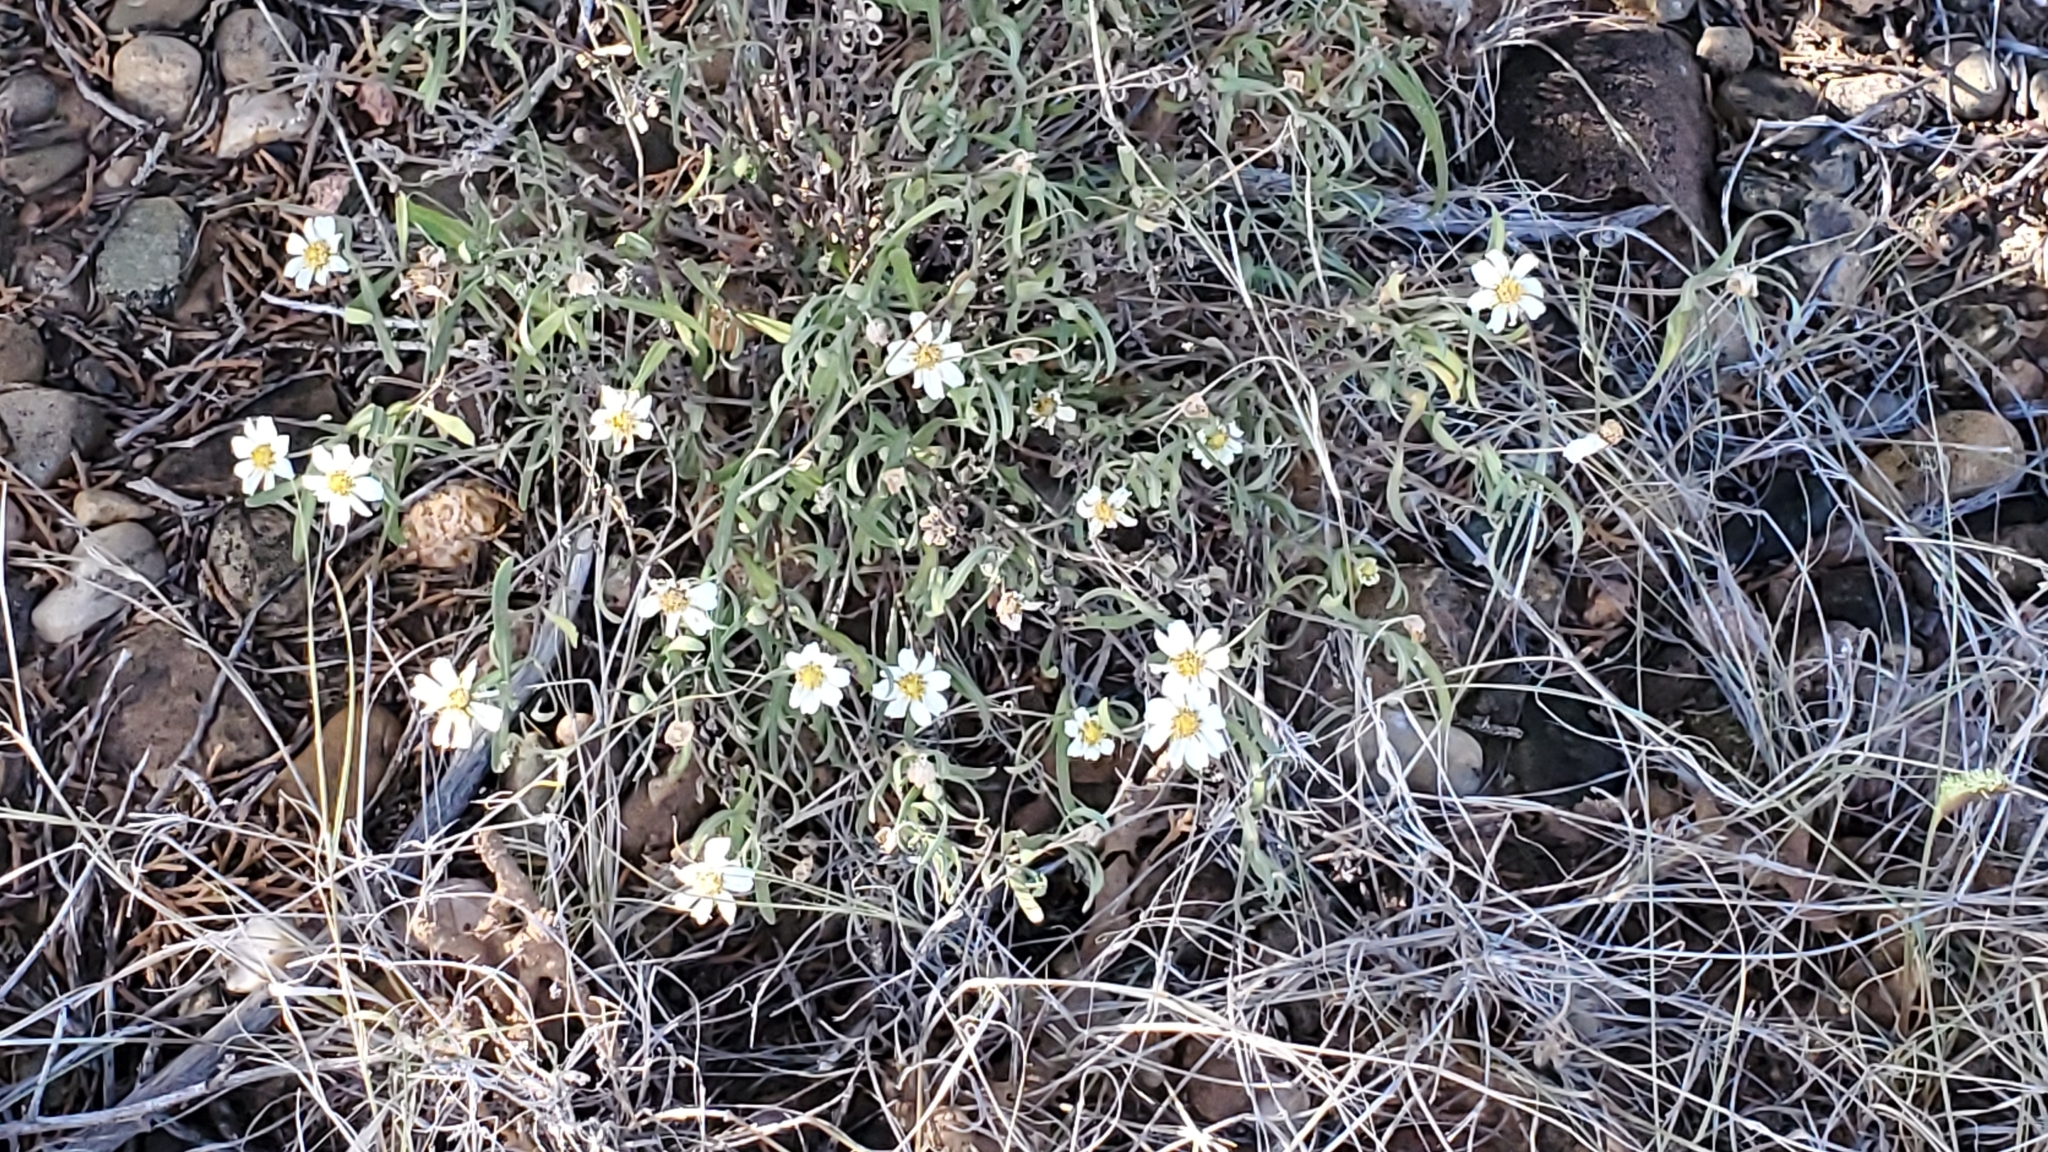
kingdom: Plantae
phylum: Tracheophyta
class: Magnoliopsida
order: Asterales
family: Asteraceae
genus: Melampodium
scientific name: Melampodium leucanthum
